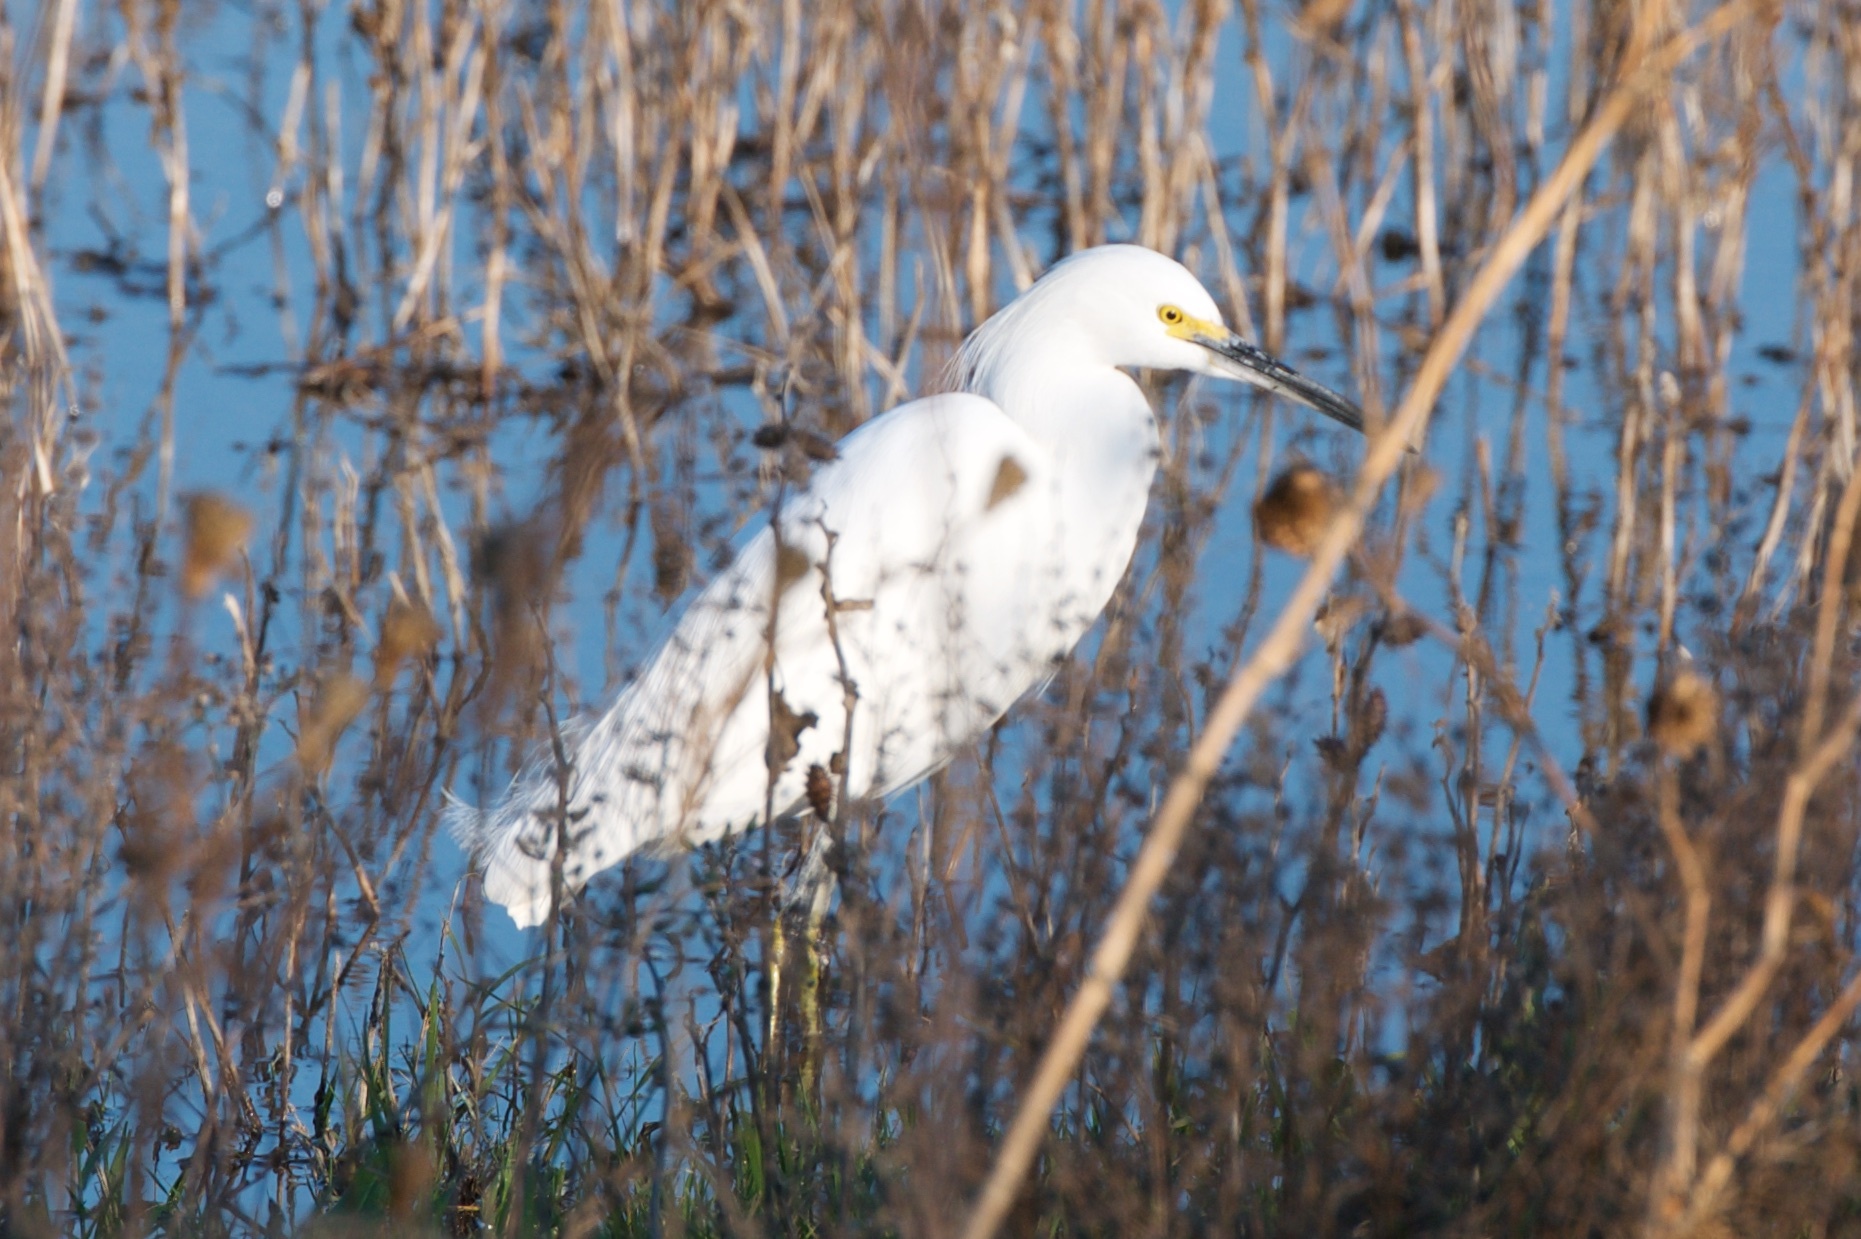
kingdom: Animalia
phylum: Chordata
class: Aves
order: Pelecaniformes
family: Ardeidae
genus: Egretta
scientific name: Egretta thula
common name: Snowy egret
